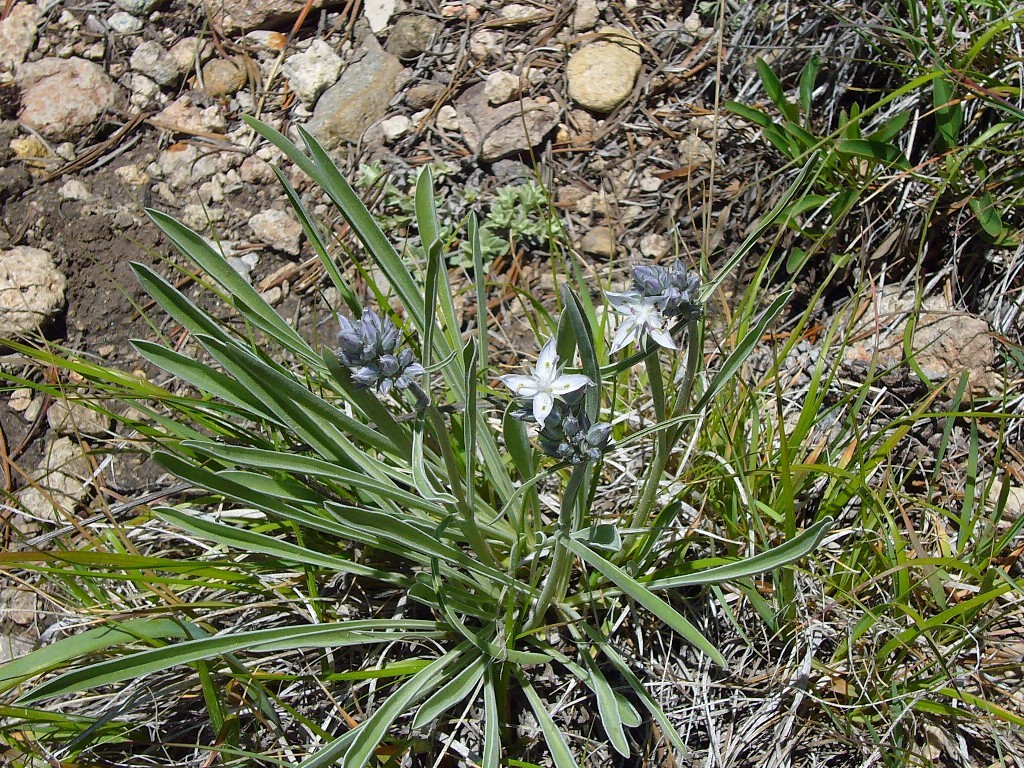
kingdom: Plantae
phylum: Tracheophyta
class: Magnoliopsida
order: Gentianales
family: Gentianaceae
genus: Frasera
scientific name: Frasera albicaulis
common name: Cusick's frasera
